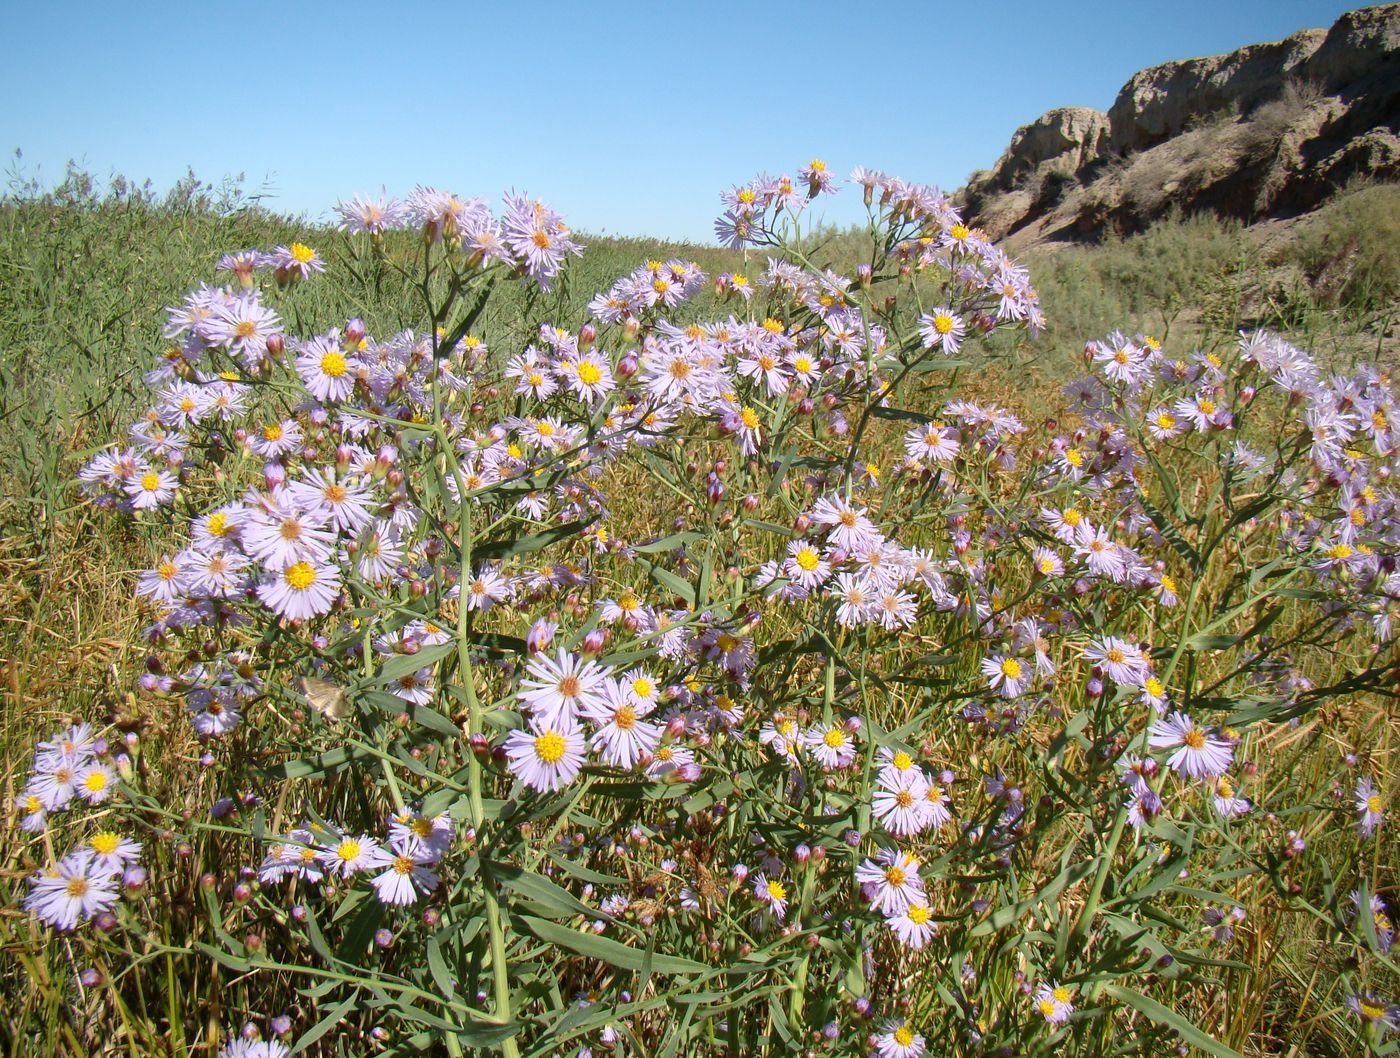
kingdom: Plantae
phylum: Tracheophyta
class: Magnoliopsida
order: Asterales
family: Asteraceae
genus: Tripolium
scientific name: Tripolium pannonicum
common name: Sea aster
